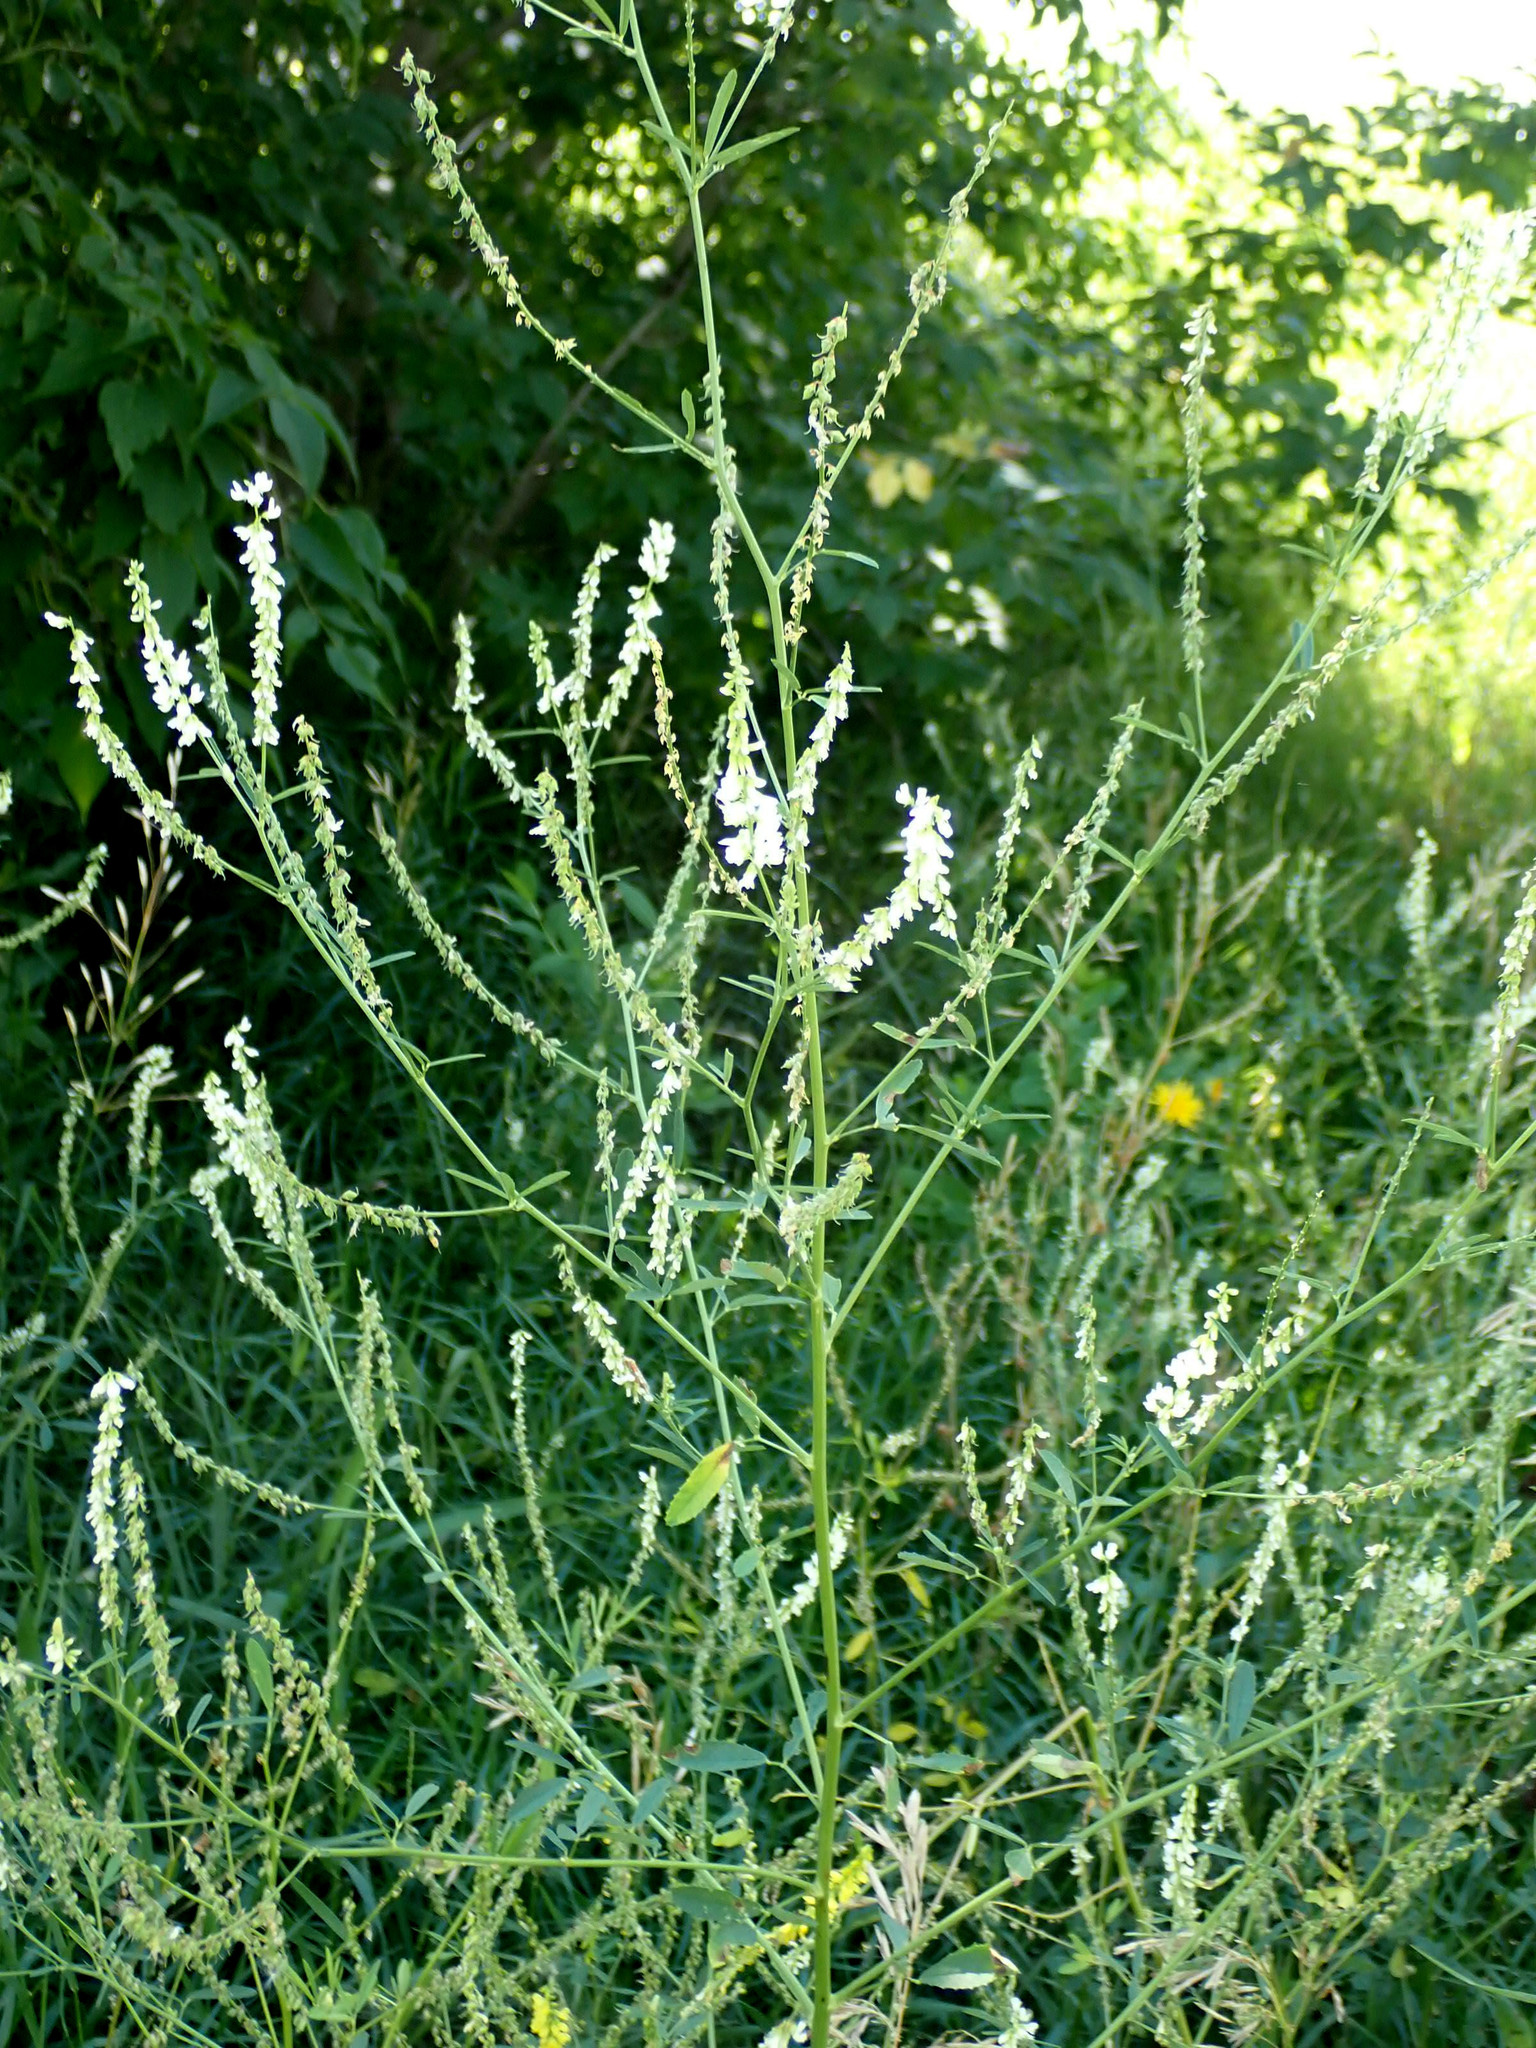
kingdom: Plantae
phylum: Tracheophyta
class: Magnoliopsida
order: Fabales
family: Fabaceae
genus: Melilotus
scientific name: Melilotus albus
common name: White melilot
